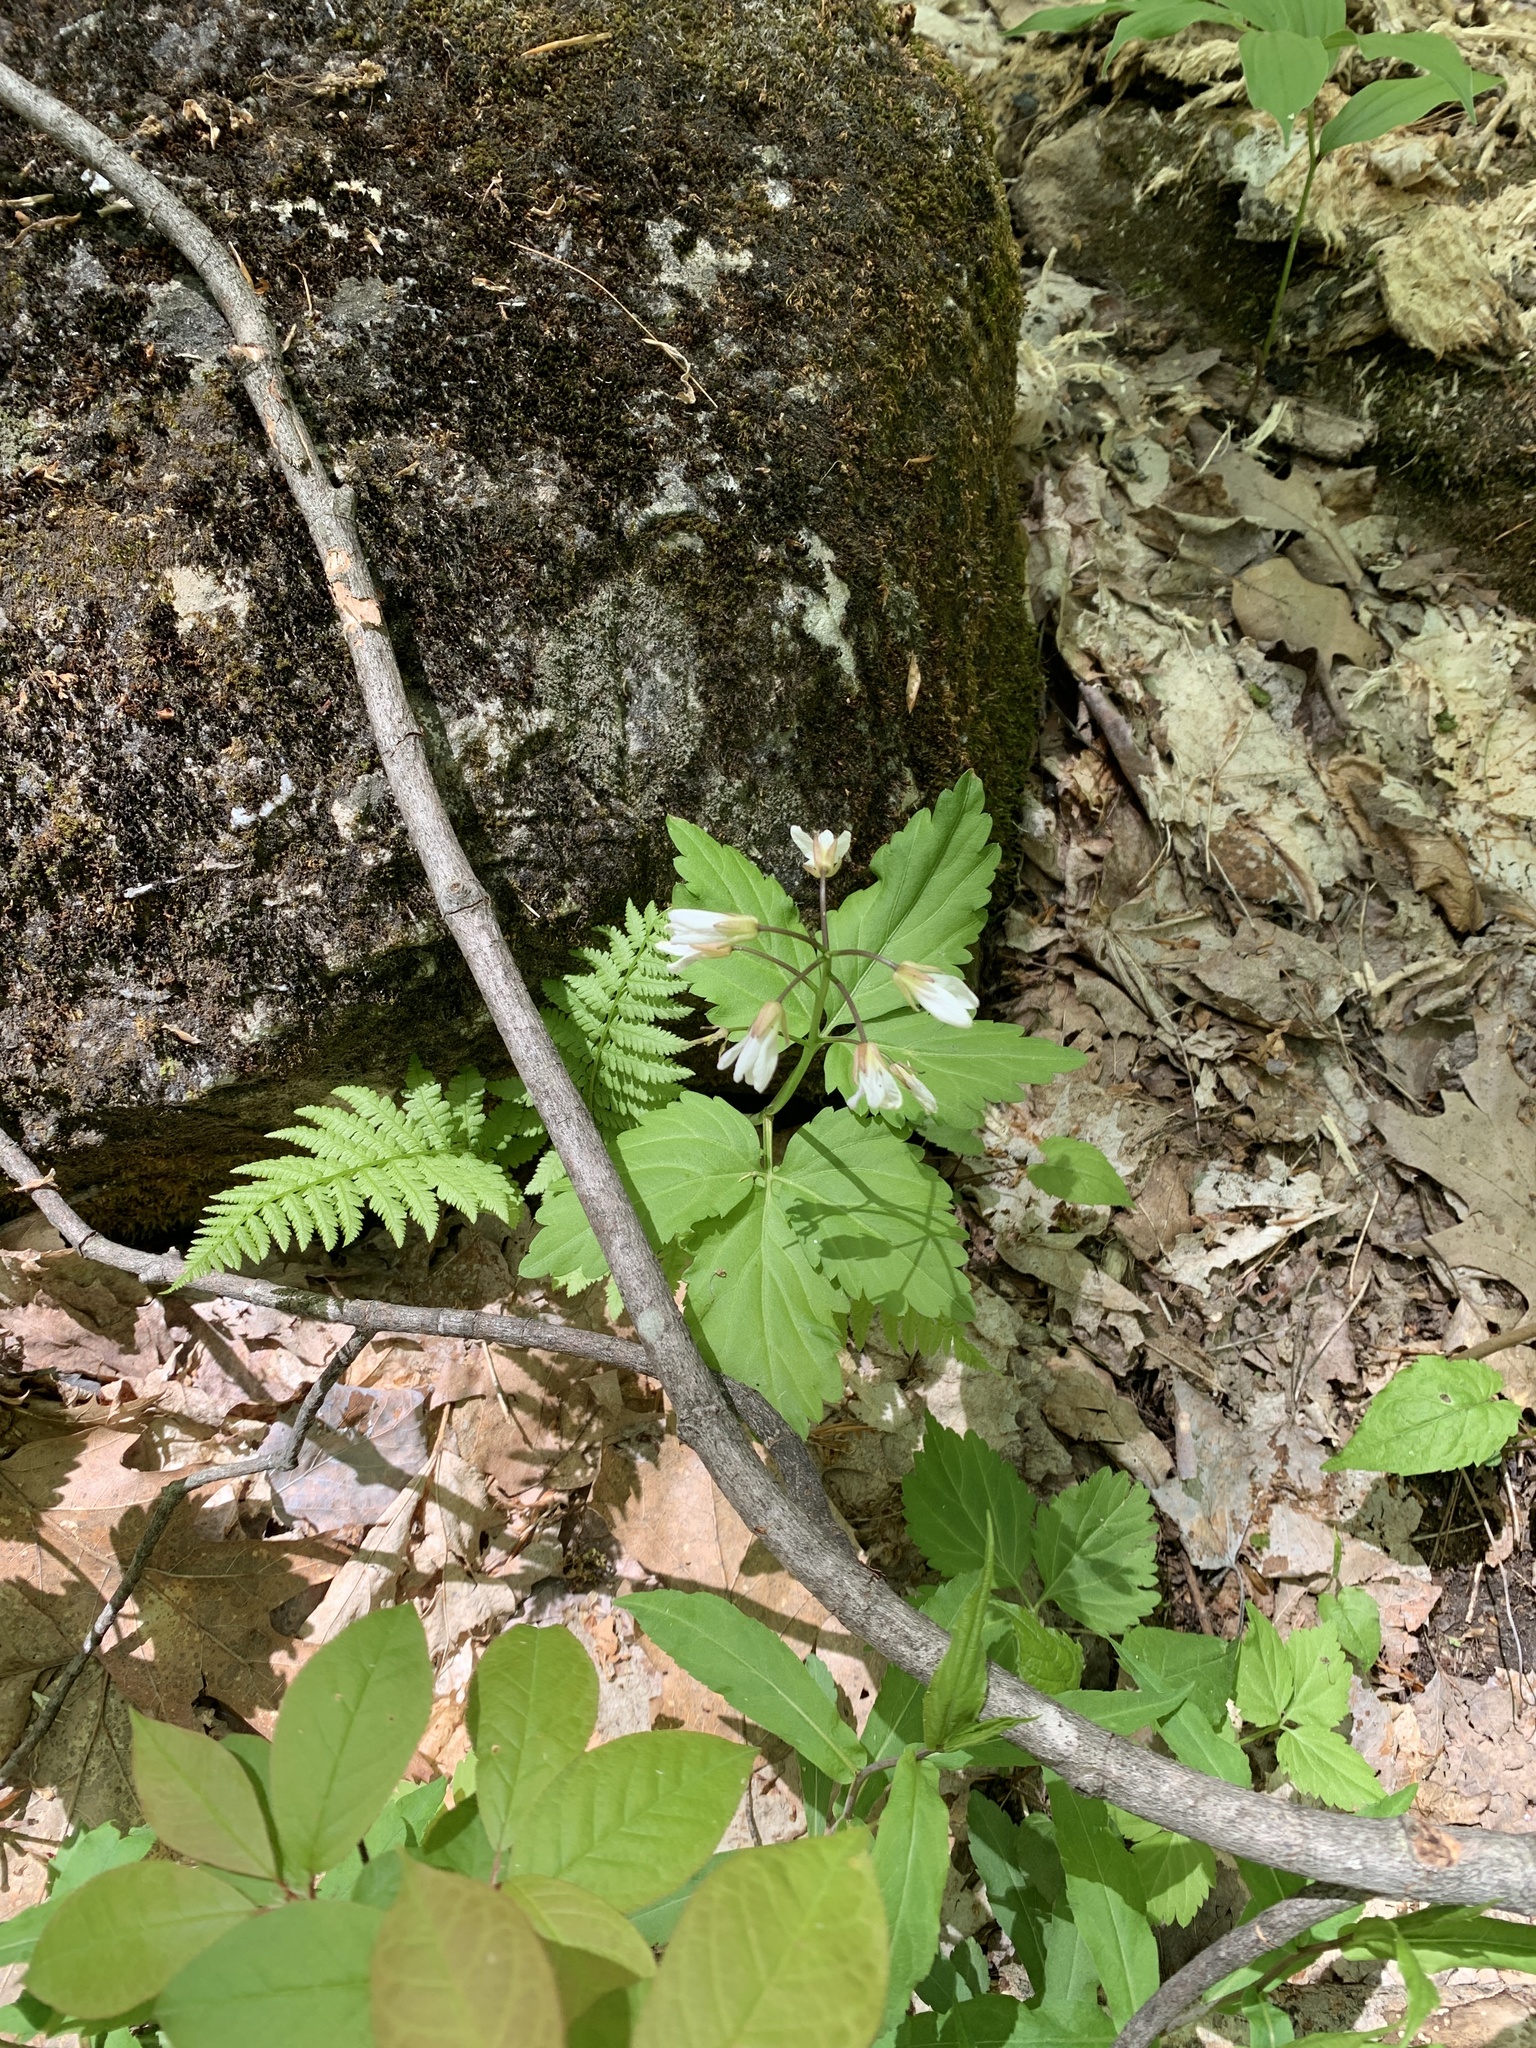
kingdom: Plantae
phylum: Tracheophyta
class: Magnoliopsida
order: Brassicales
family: Brassicaceae
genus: Cardamine
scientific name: Cardamine diphylla
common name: Broad-leaved toothwort
